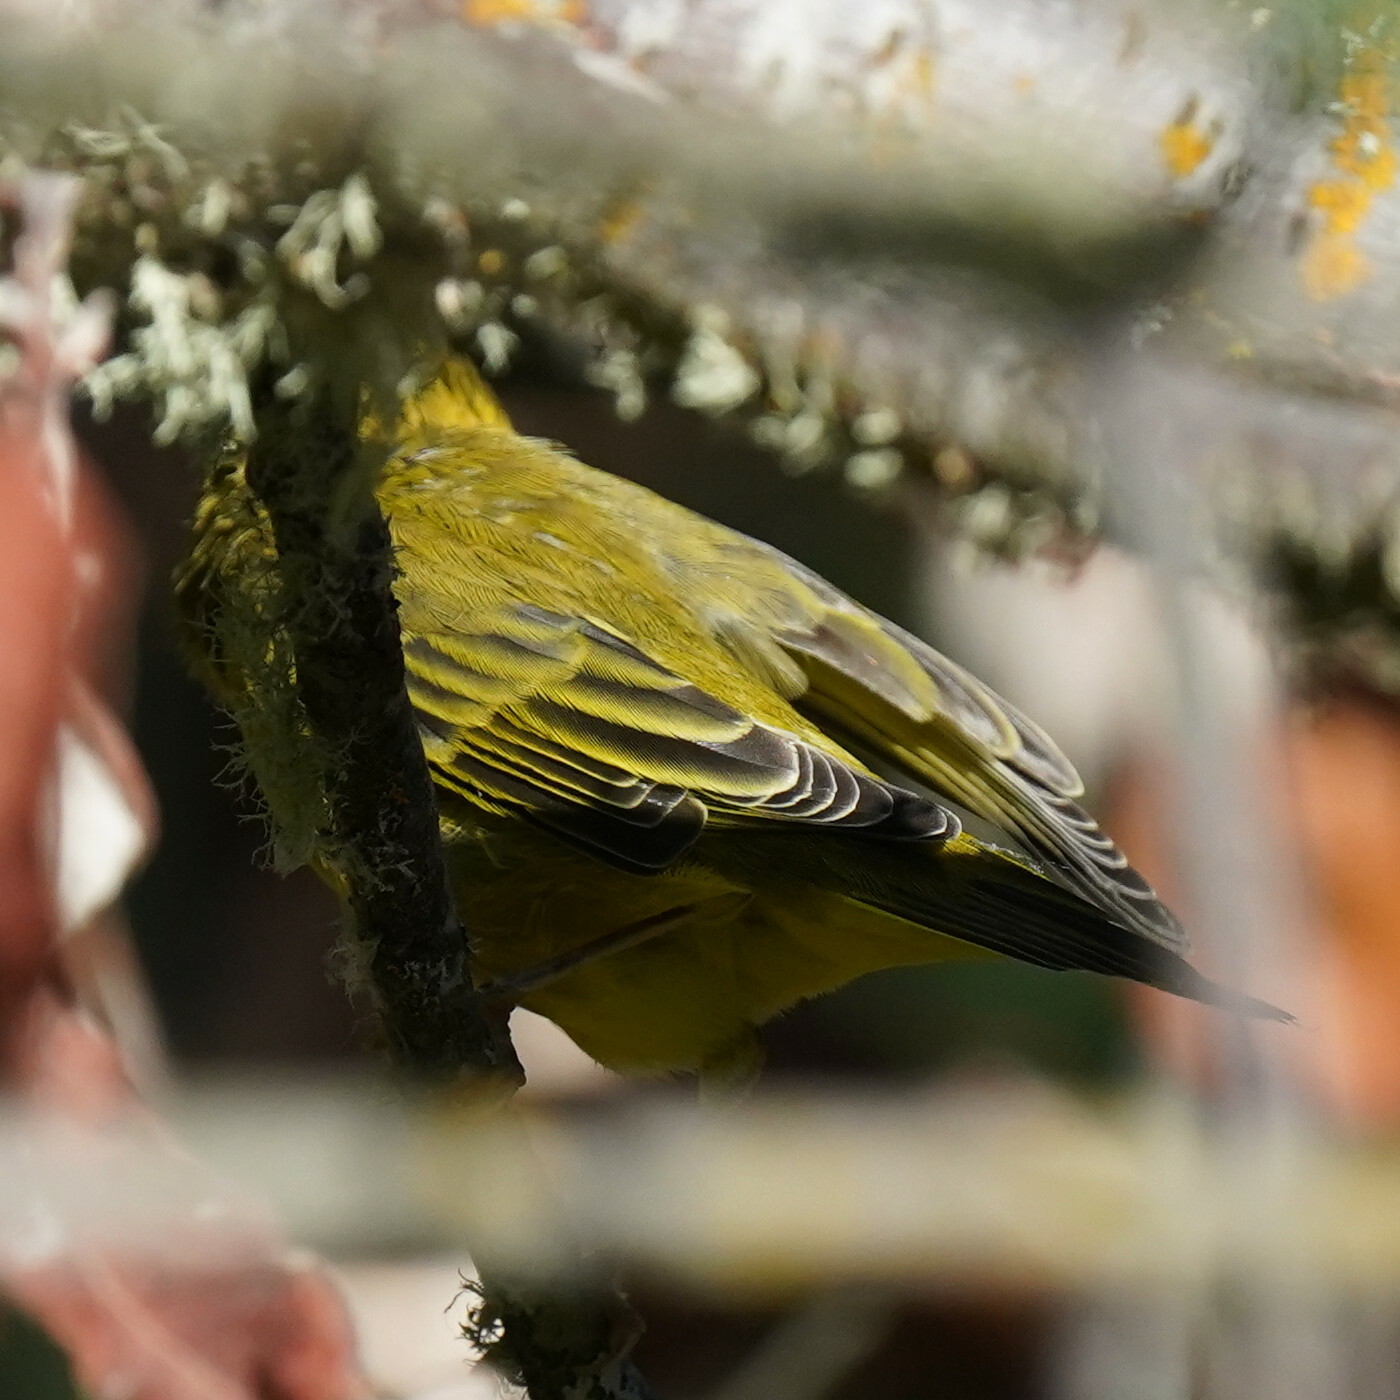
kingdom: Animalia
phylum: Chordata
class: Aves
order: Passeriformes
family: Parulidae
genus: Setophaga
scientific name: Setophaga petechia
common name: Yellow warbler
